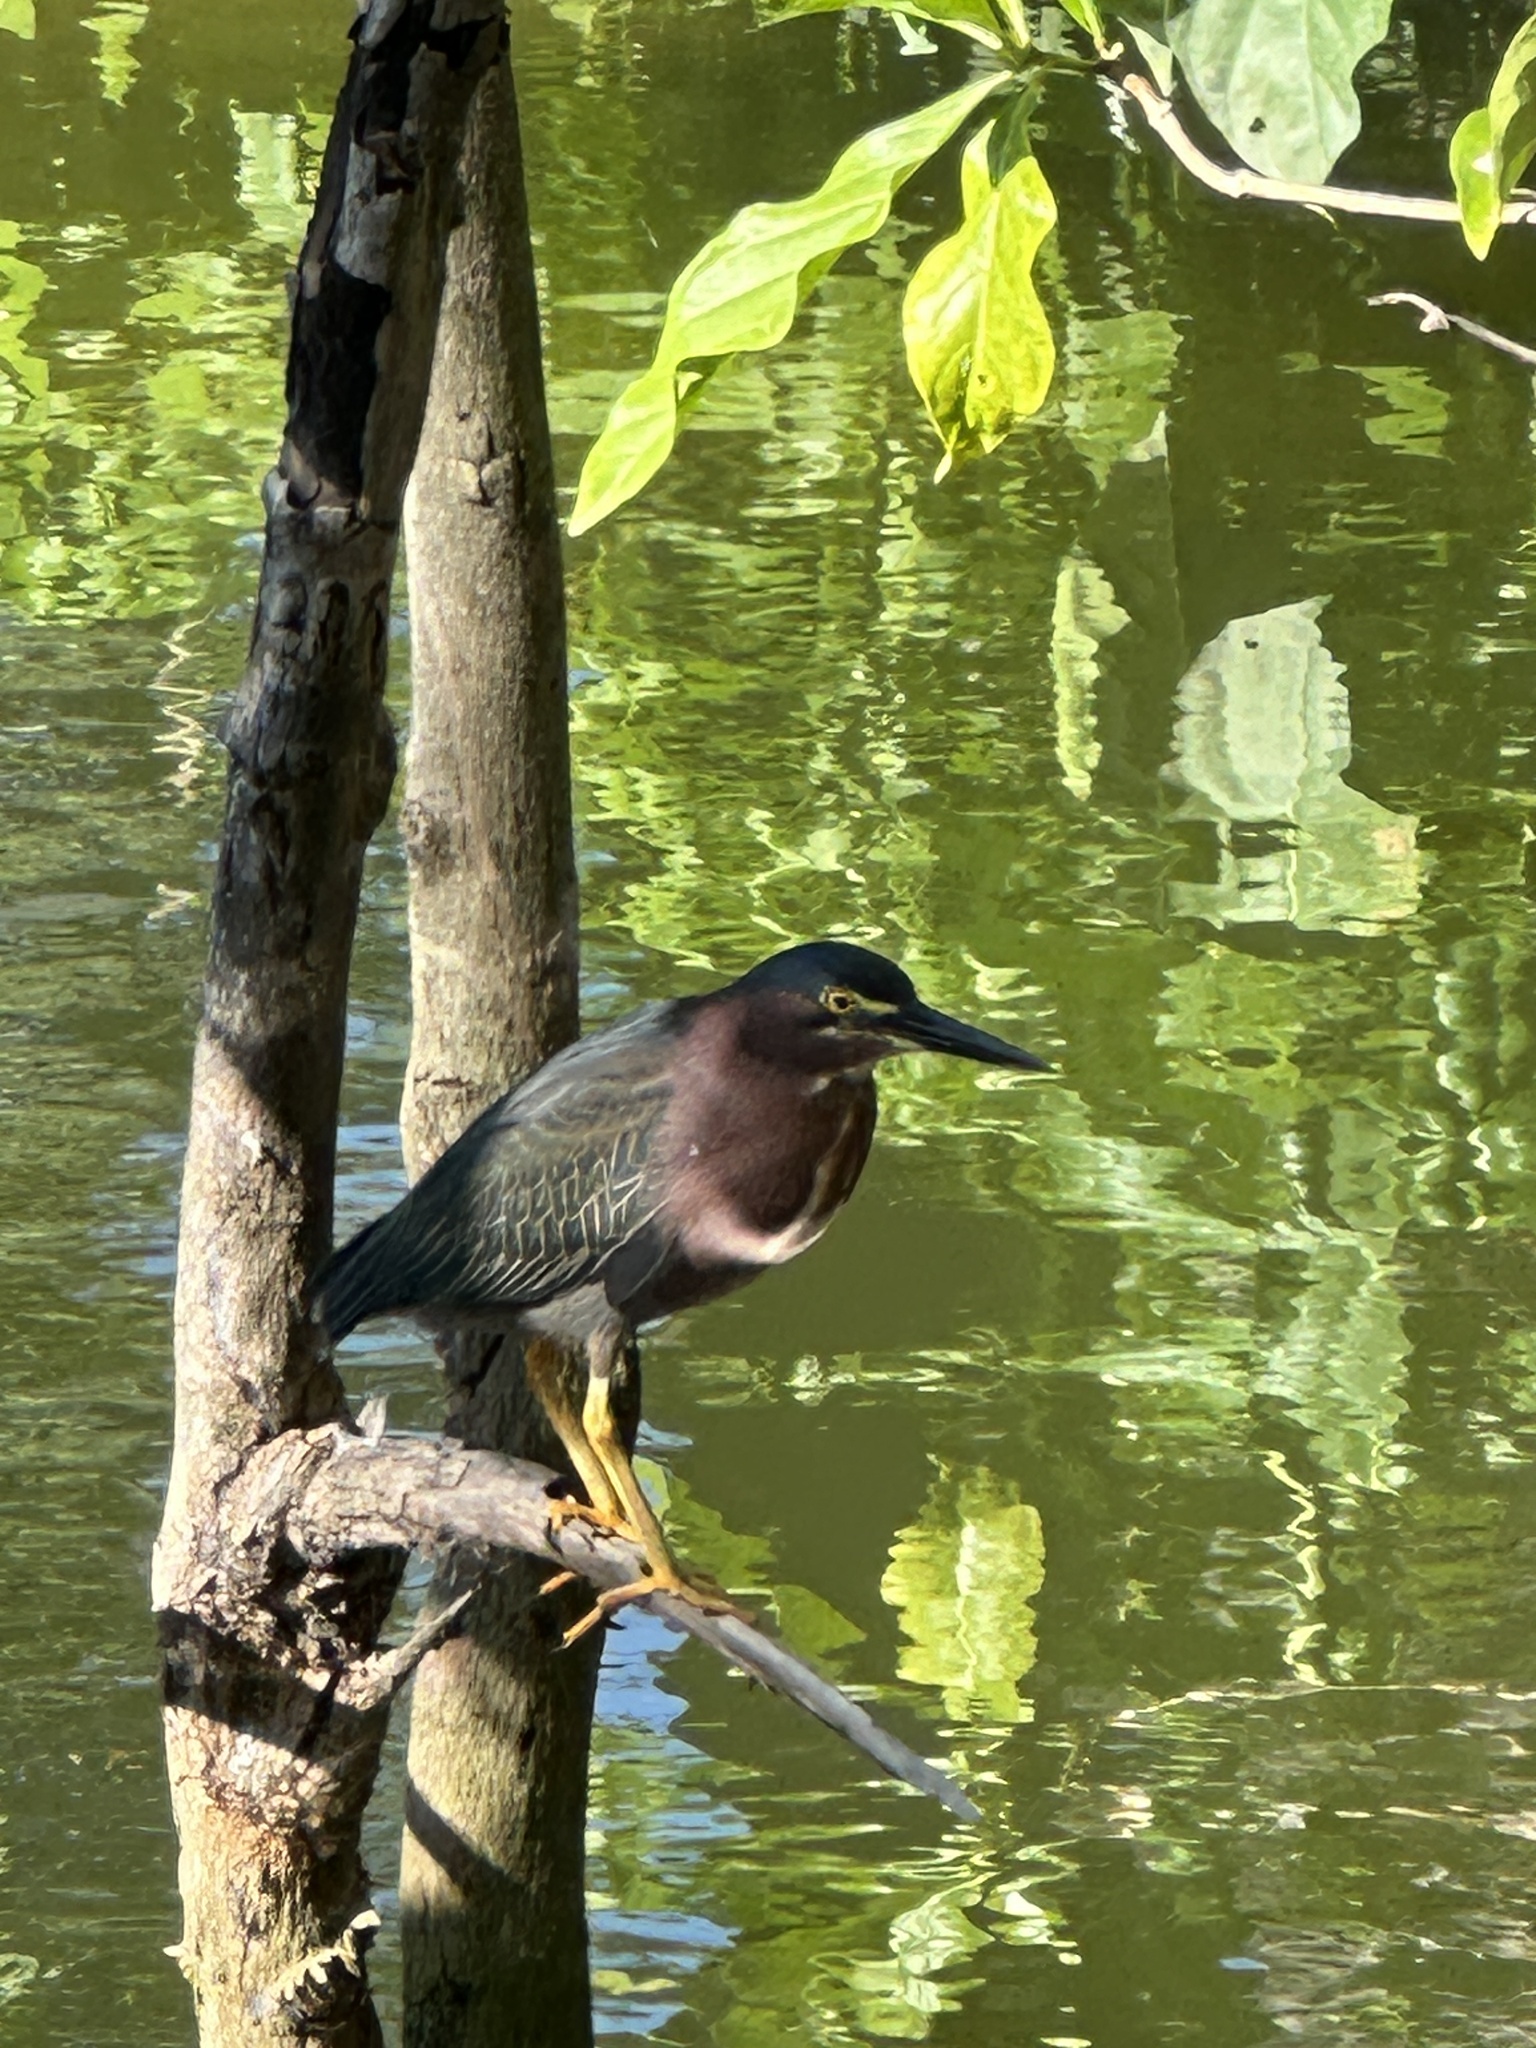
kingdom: Animalia
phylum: Chordata
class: Aves
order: Pelecaniformes
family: Ardeidae
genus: Butorides
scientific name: Butorides virescens
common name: Green heron
